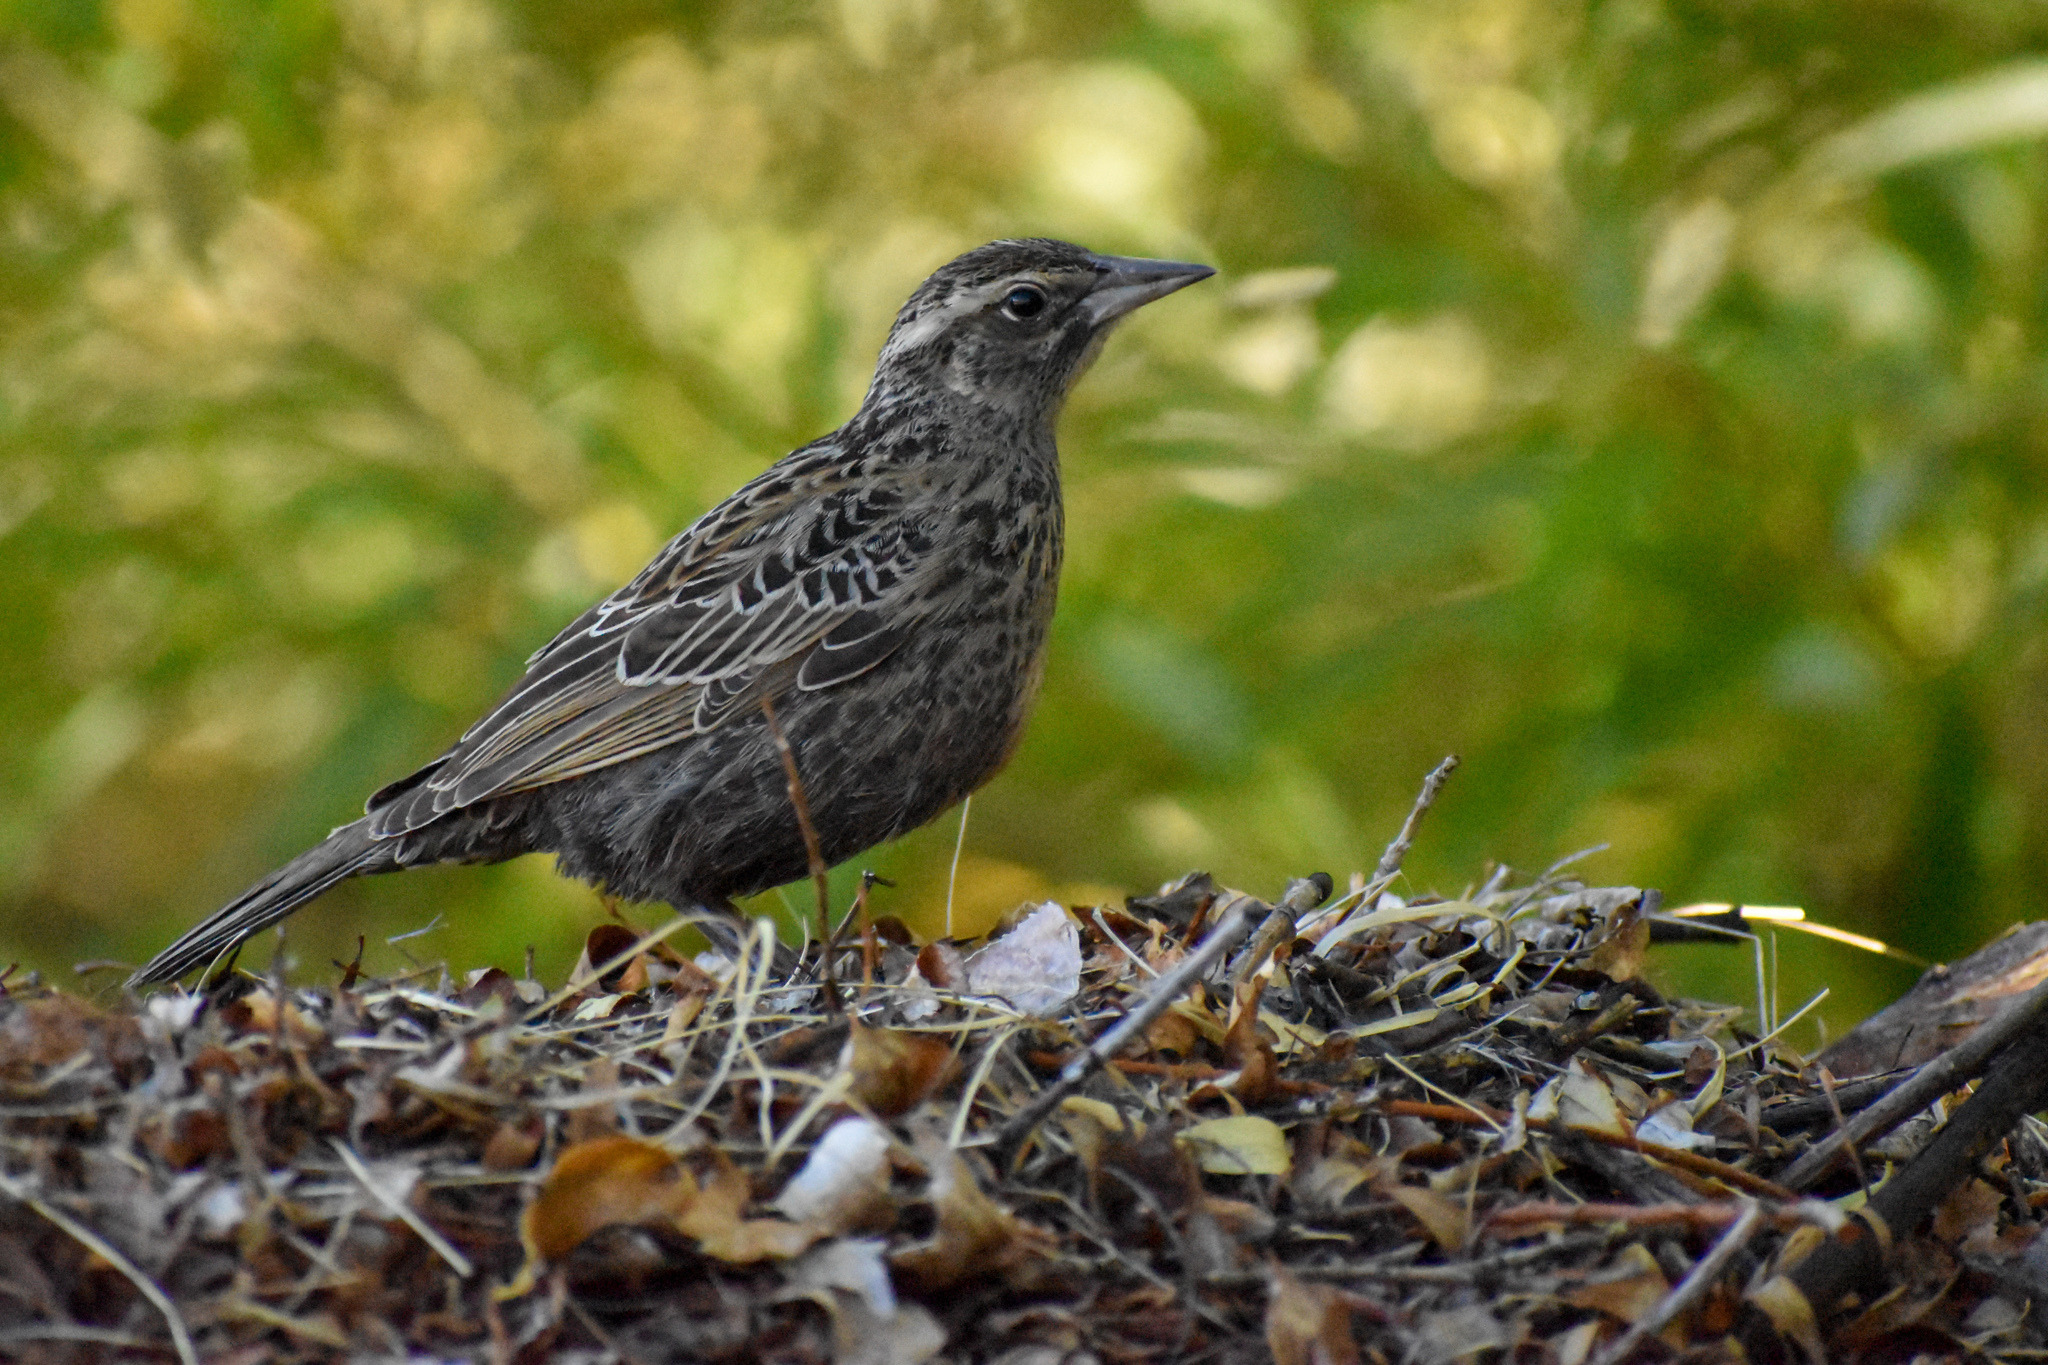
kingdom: Animalia
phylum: Chordata
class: Aves
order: Passeriformes
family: Icteridae
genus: Sturnella
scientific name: Sturnella loyca
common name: Long-tailed meadowlark
